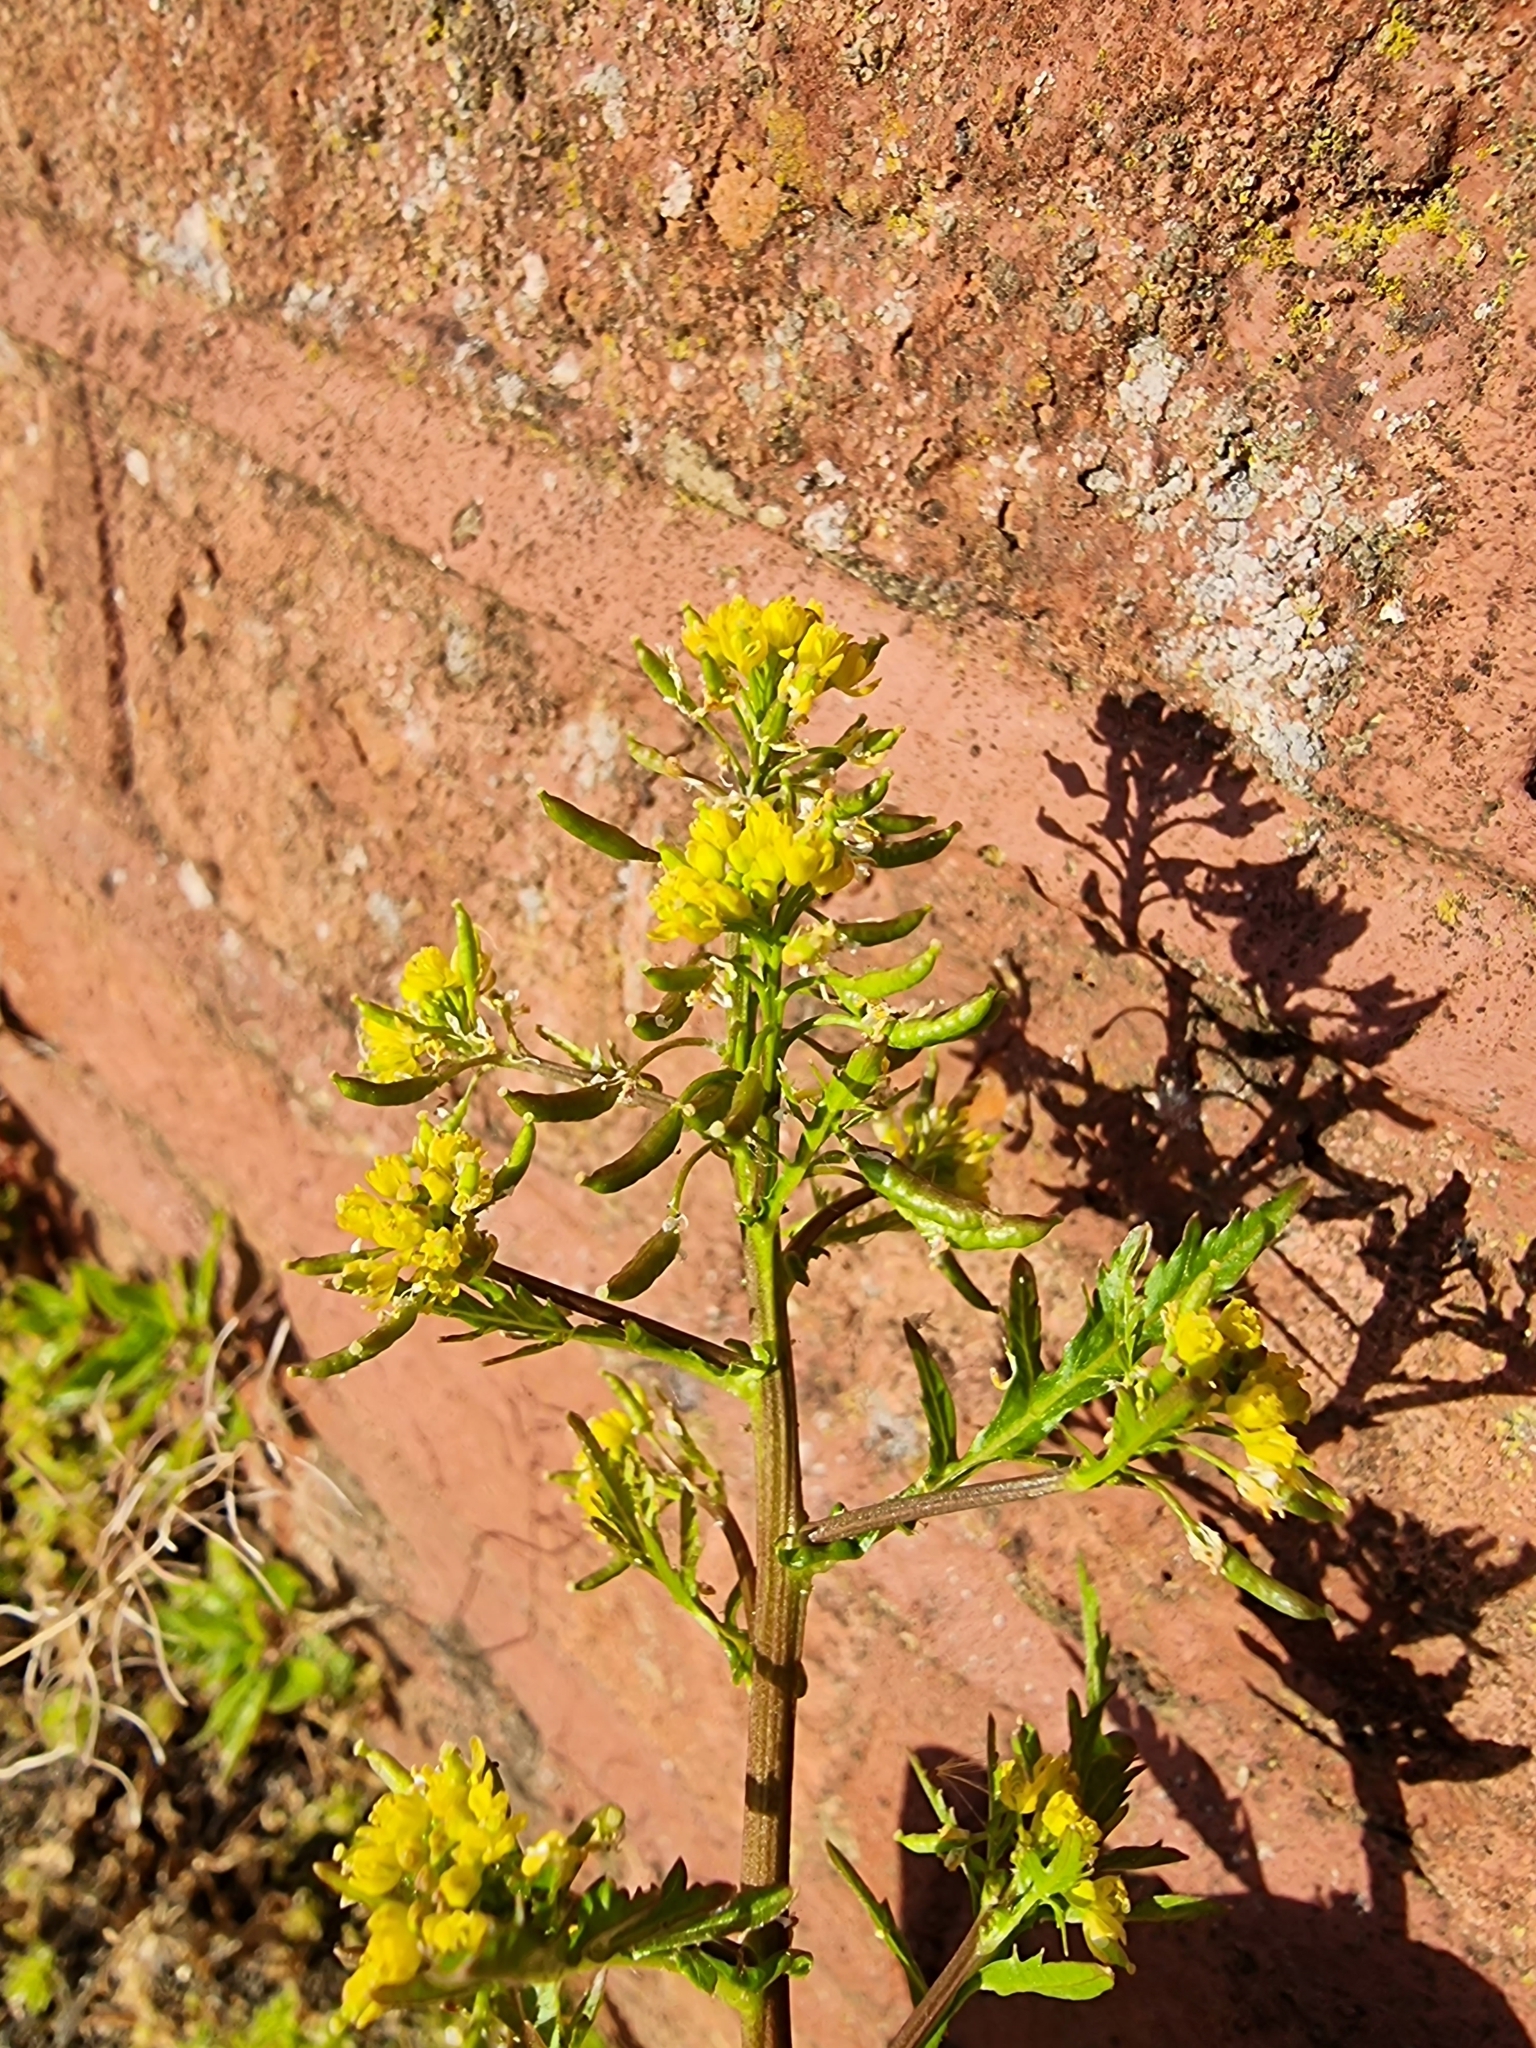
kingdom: Plantae
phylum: Tracheophyta
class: Magnoliopsida
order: Brassicales
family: Brassicaceae
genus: Rorippa
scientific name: Rorippa palustris
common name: Marsh yellow-cress
